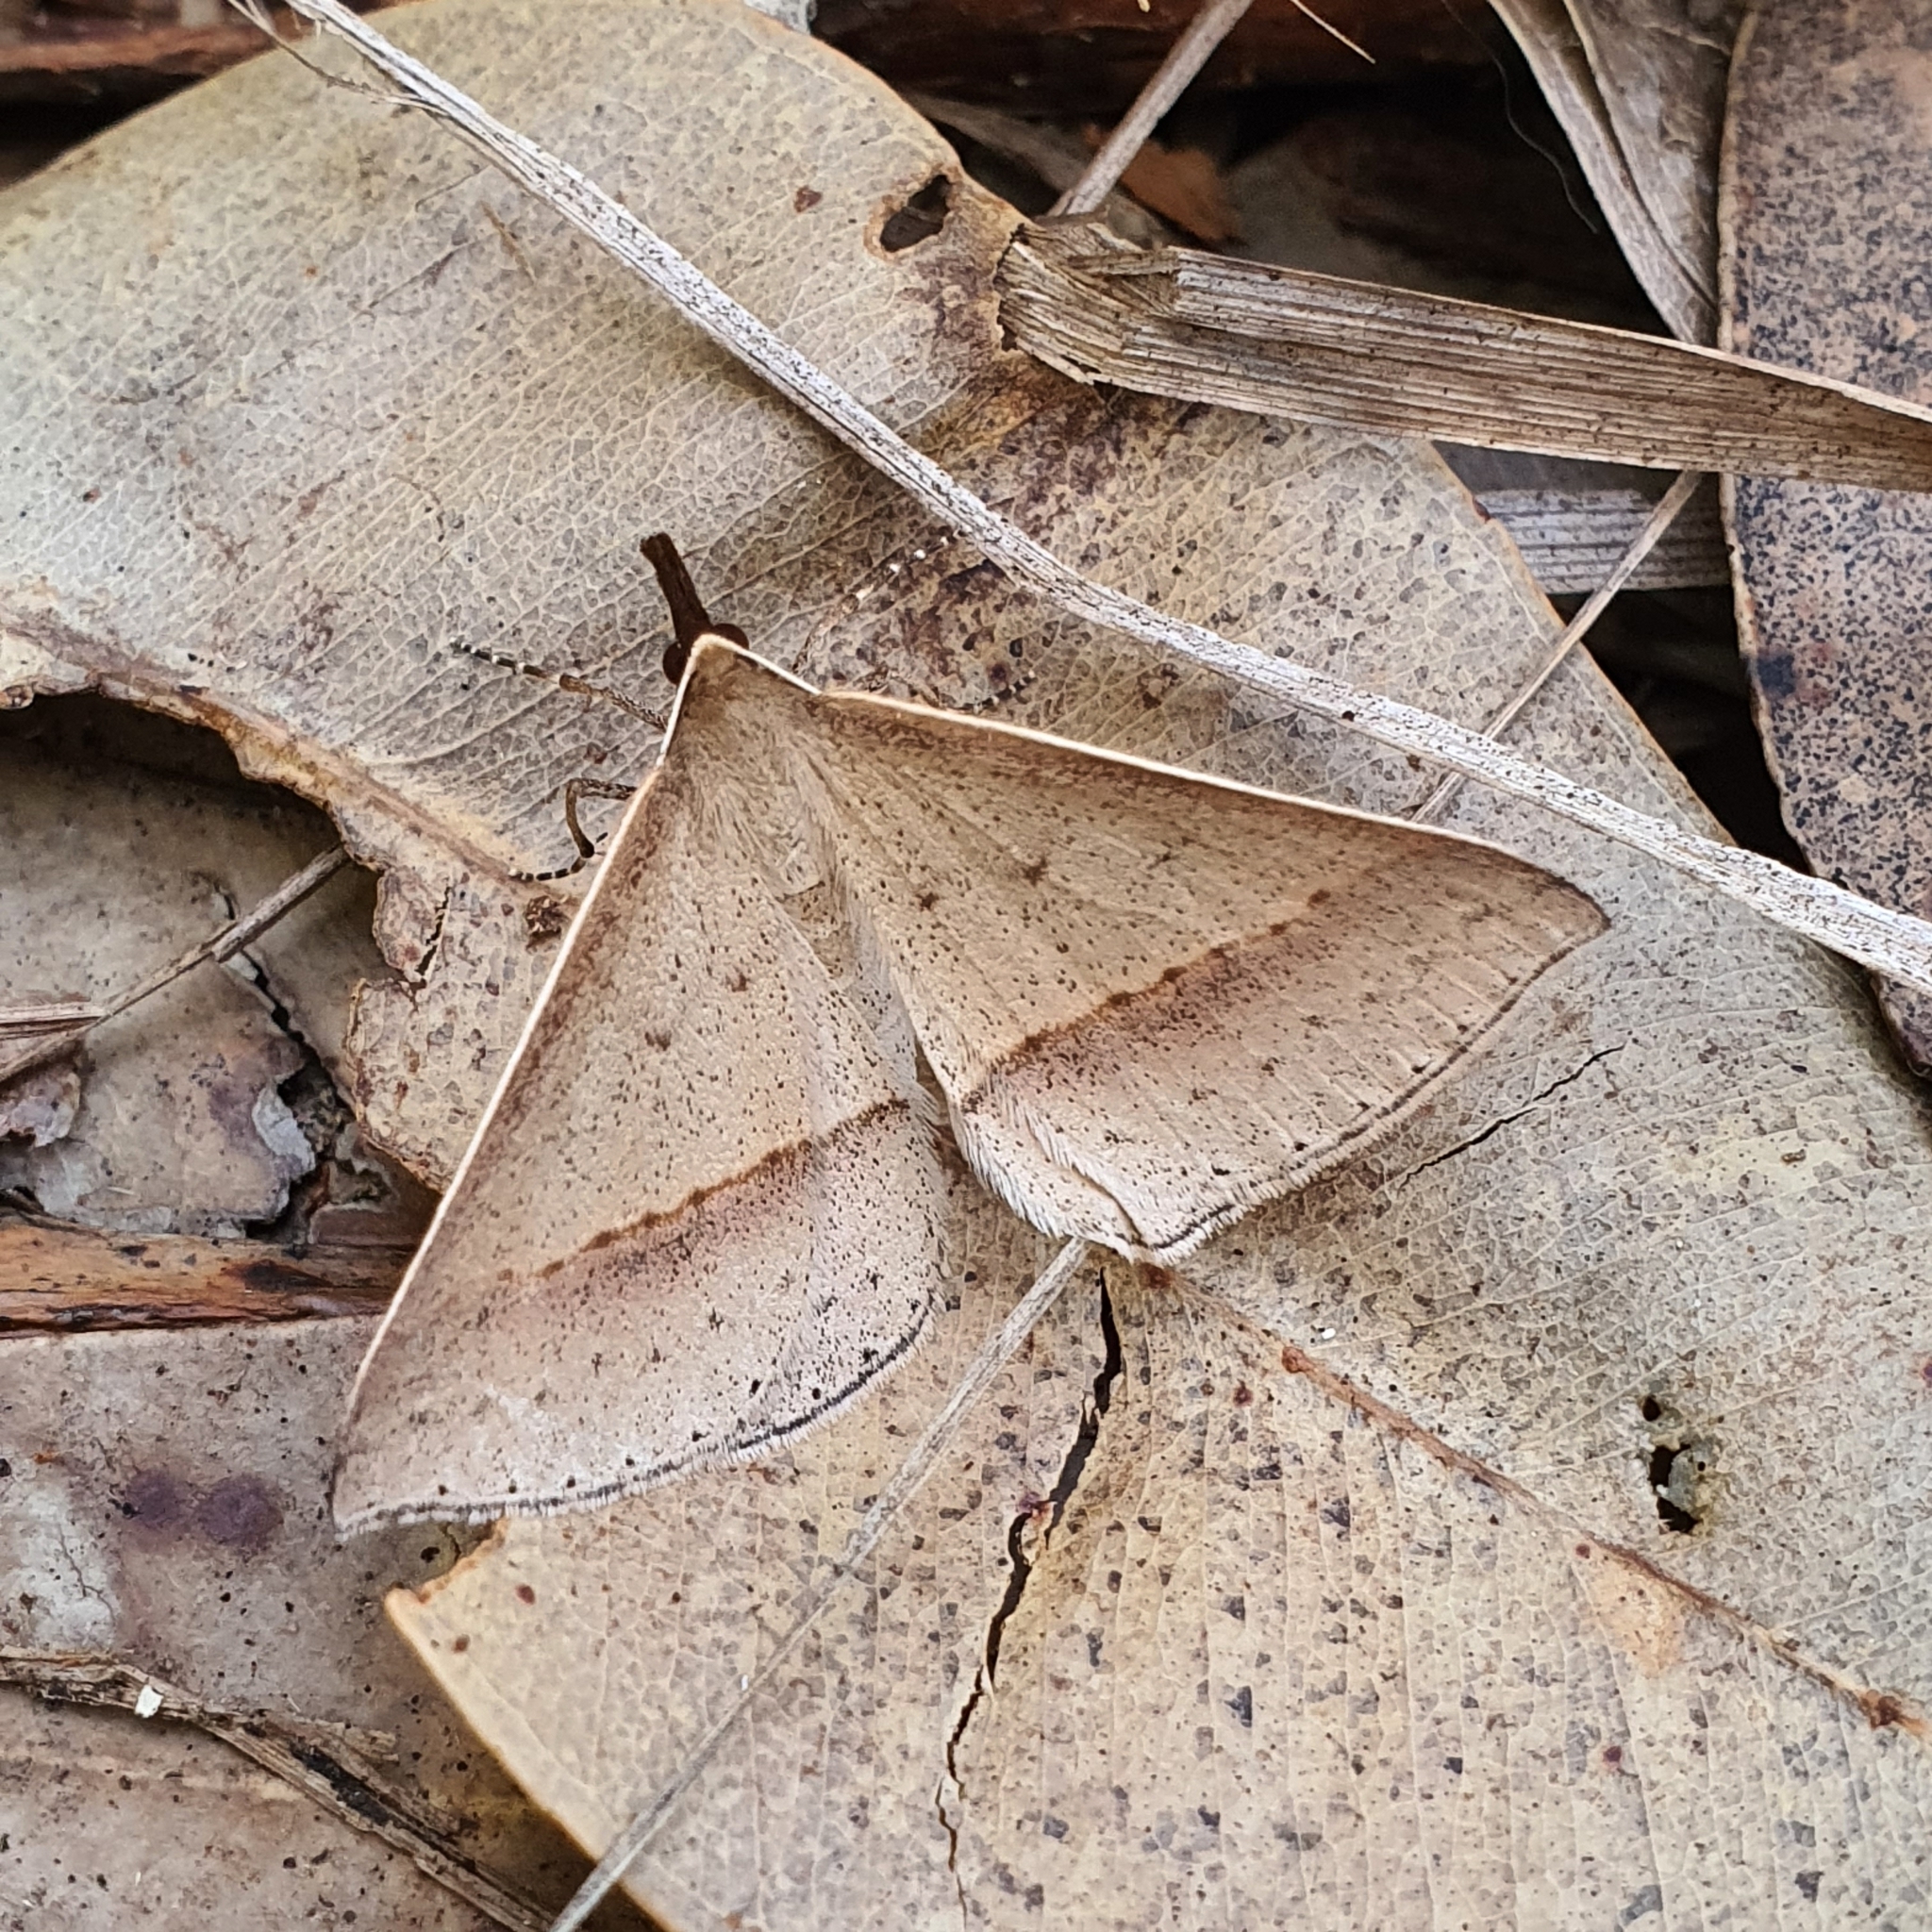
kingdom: Animalia
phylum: Arthropoda
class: Insecta
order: Lepidoptera
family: Geometridae
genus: Epidesmia
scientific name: Epidesmia tryxaria
